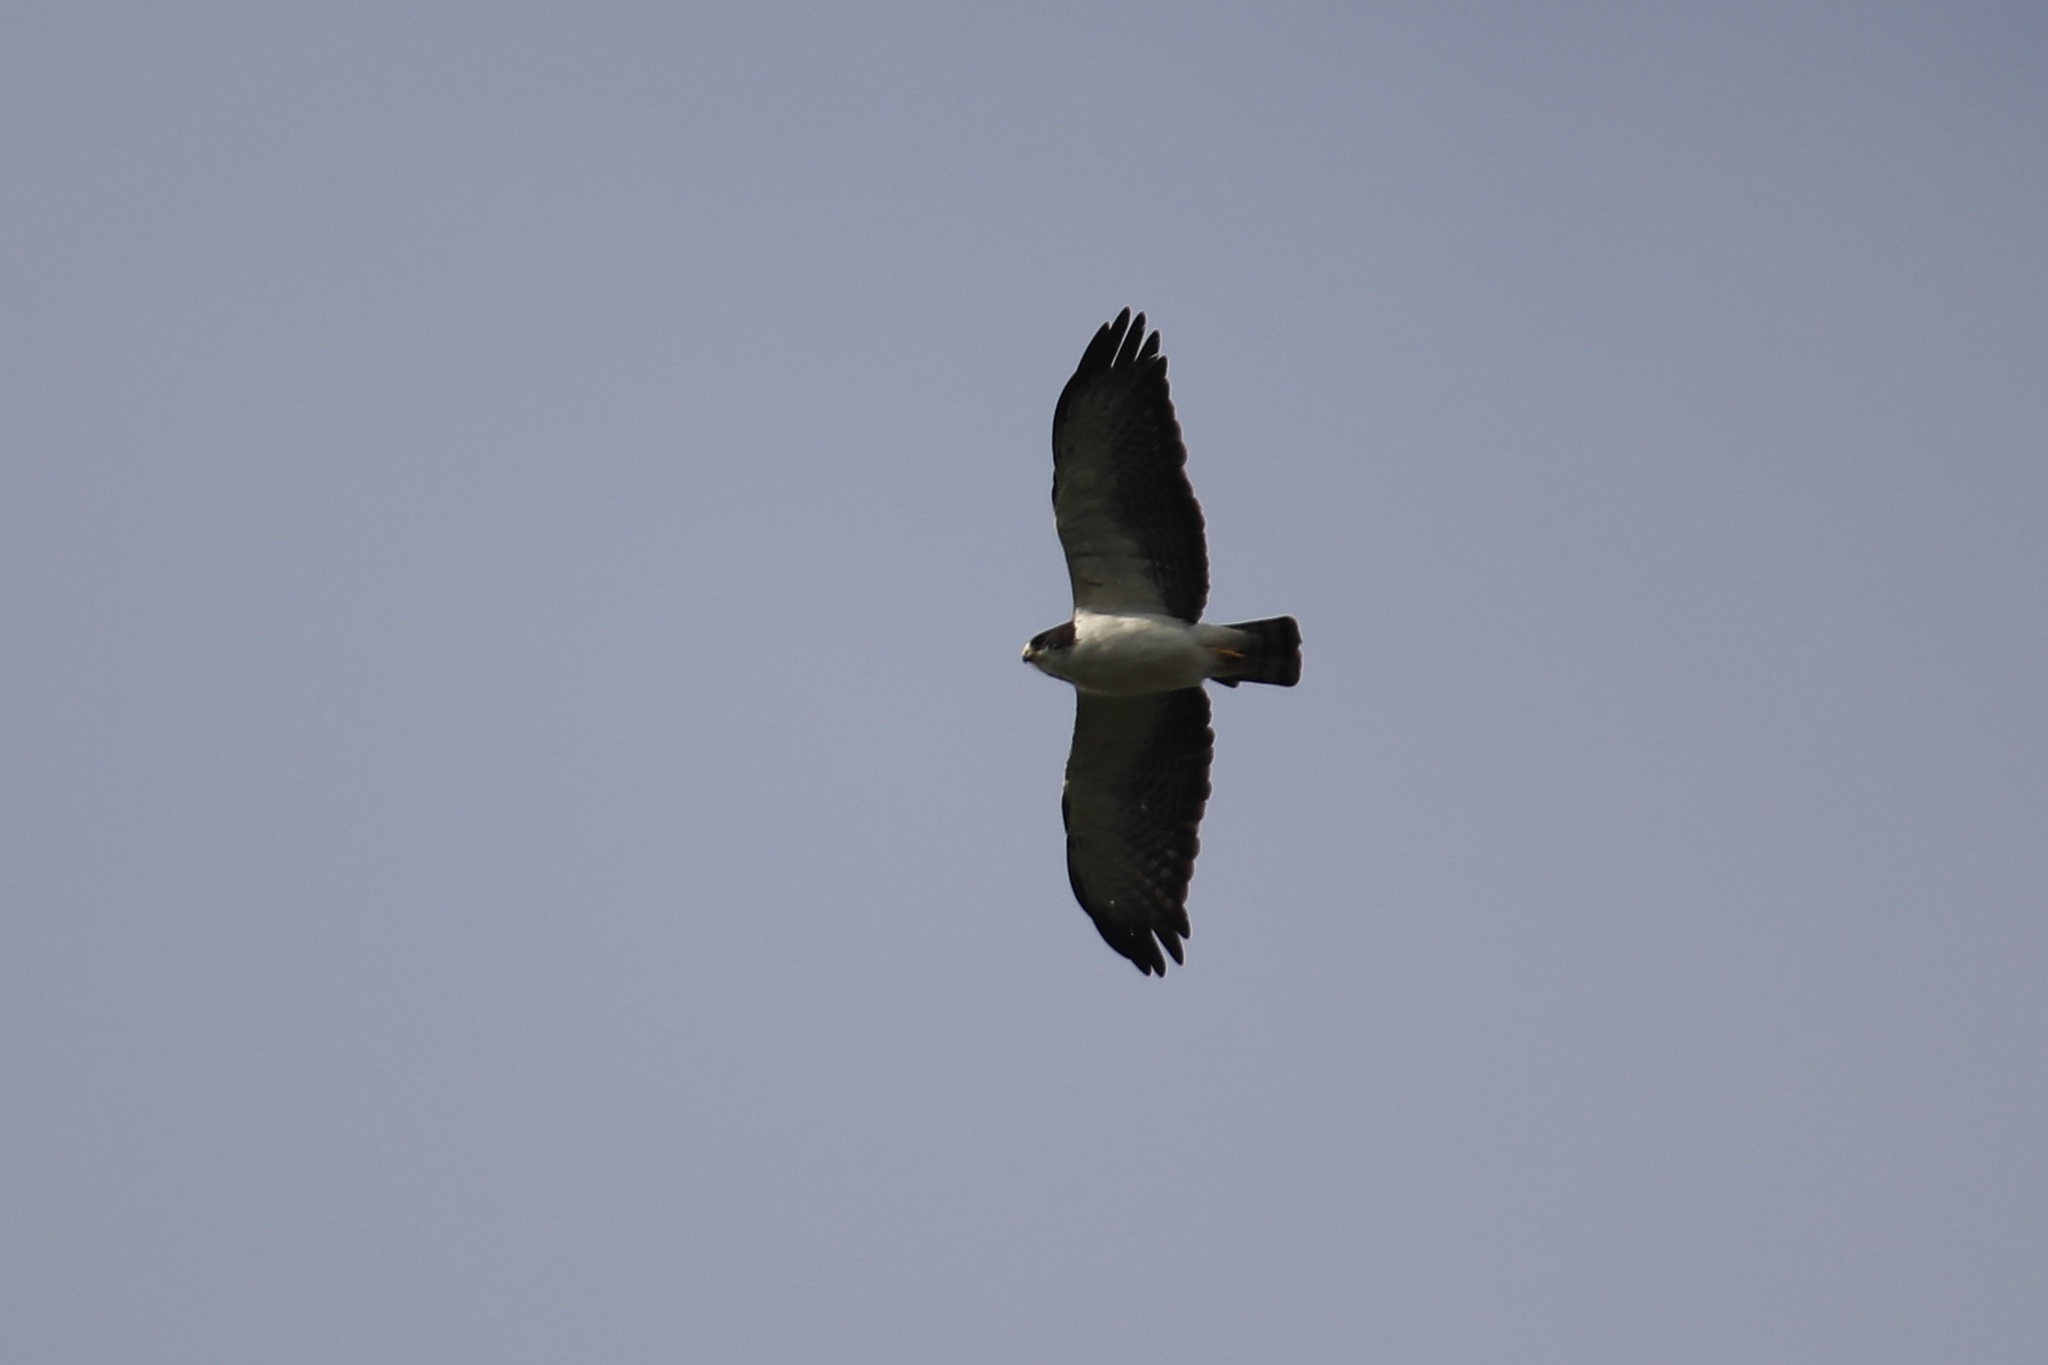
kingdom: Animalia
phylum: Chordata
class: Aves
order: Accipitriformes
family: Accipitridae
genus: Buteo
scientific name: Buteo brachyurus
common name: Short-tailed hawk
